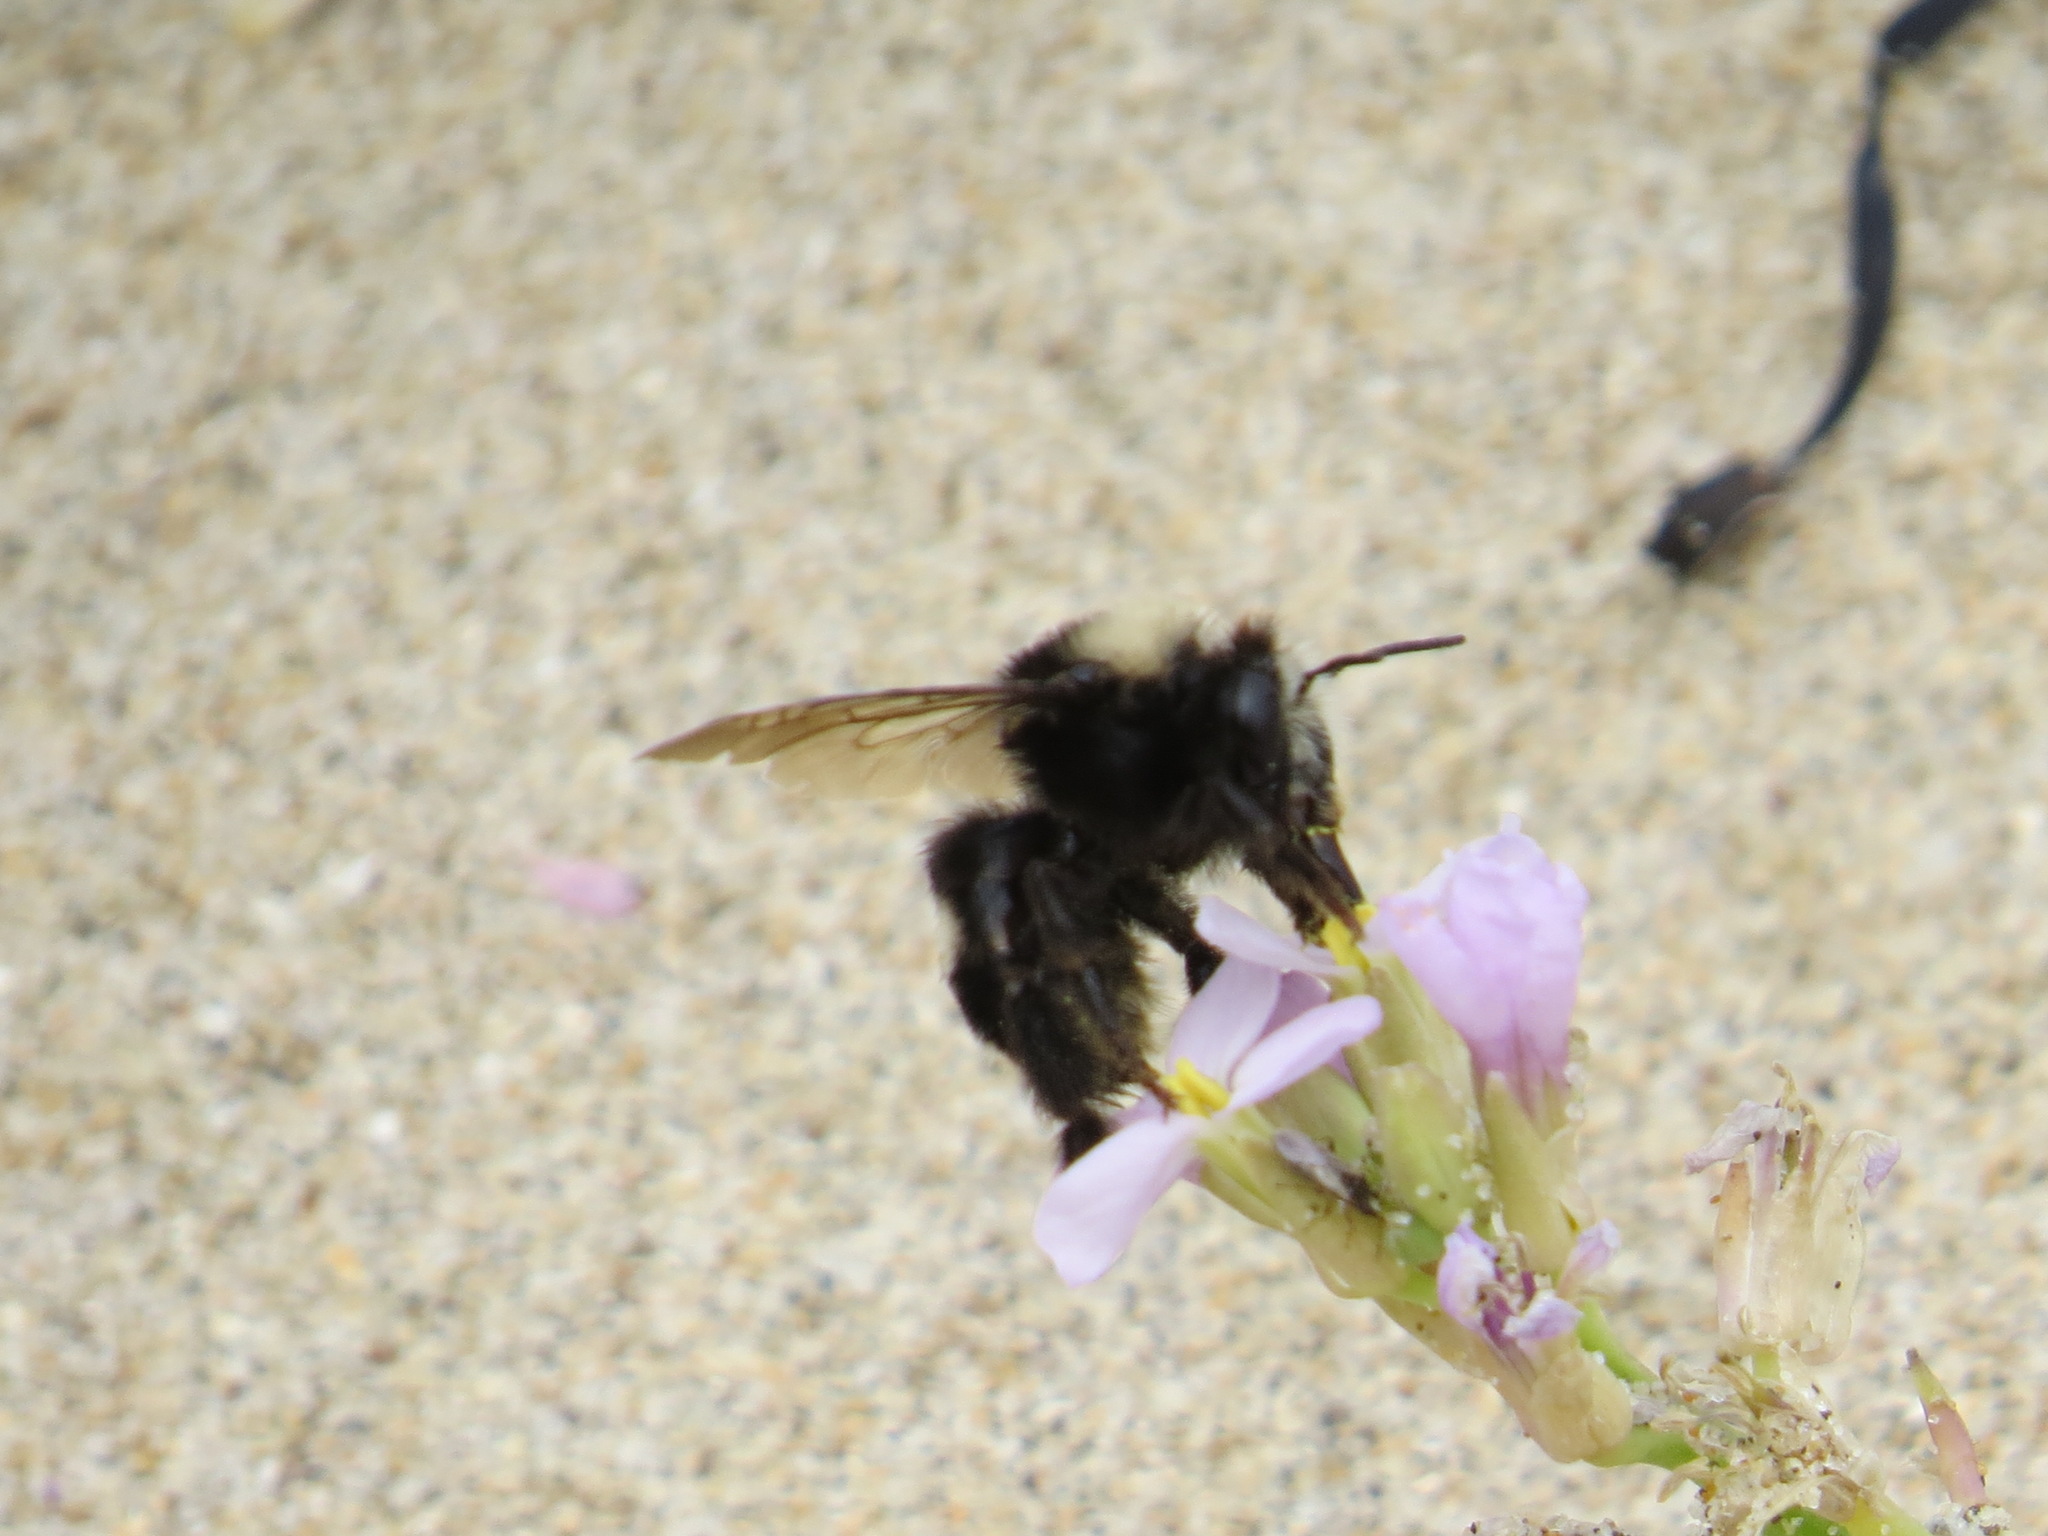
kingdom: Animalia
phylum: Arthropoda
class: Insecta
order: Hymenoptera
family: Apidae
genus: Anthophora
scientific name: Anthophora bomboides
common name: Bumble-bee-mimic digger bee
